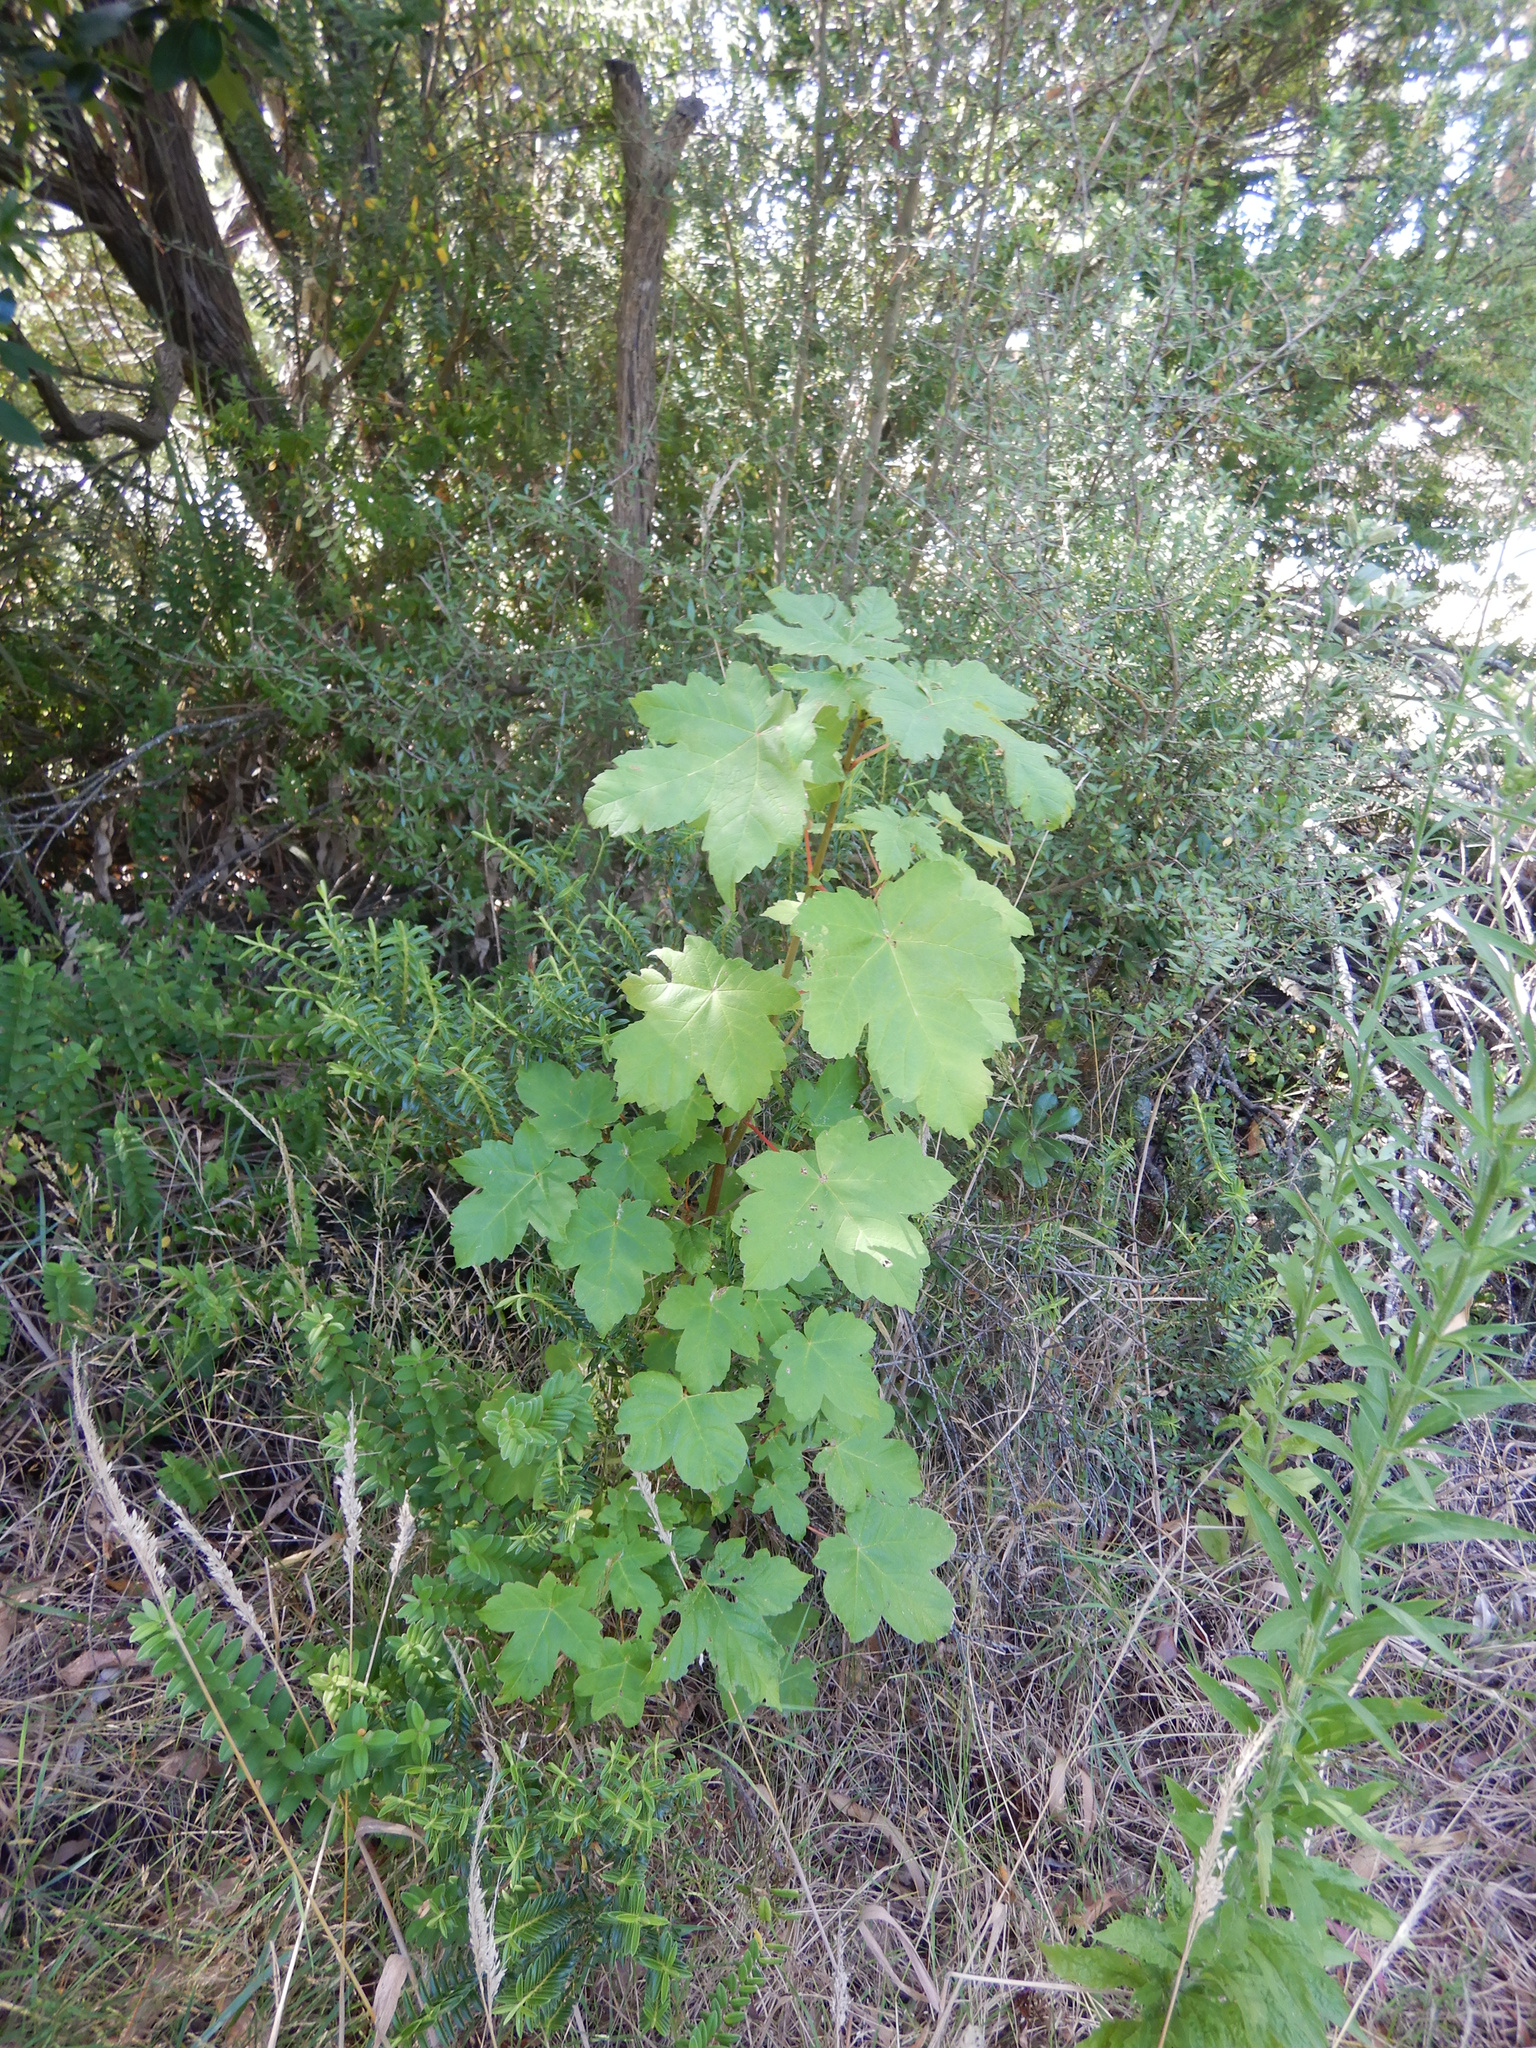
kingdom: Plantae
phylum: Tracheophyta
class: Magnoliopsida
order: Sapindales
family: Sapindaceae
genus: Acer
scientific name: Acer pseudoplatanus
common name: Sycamore
